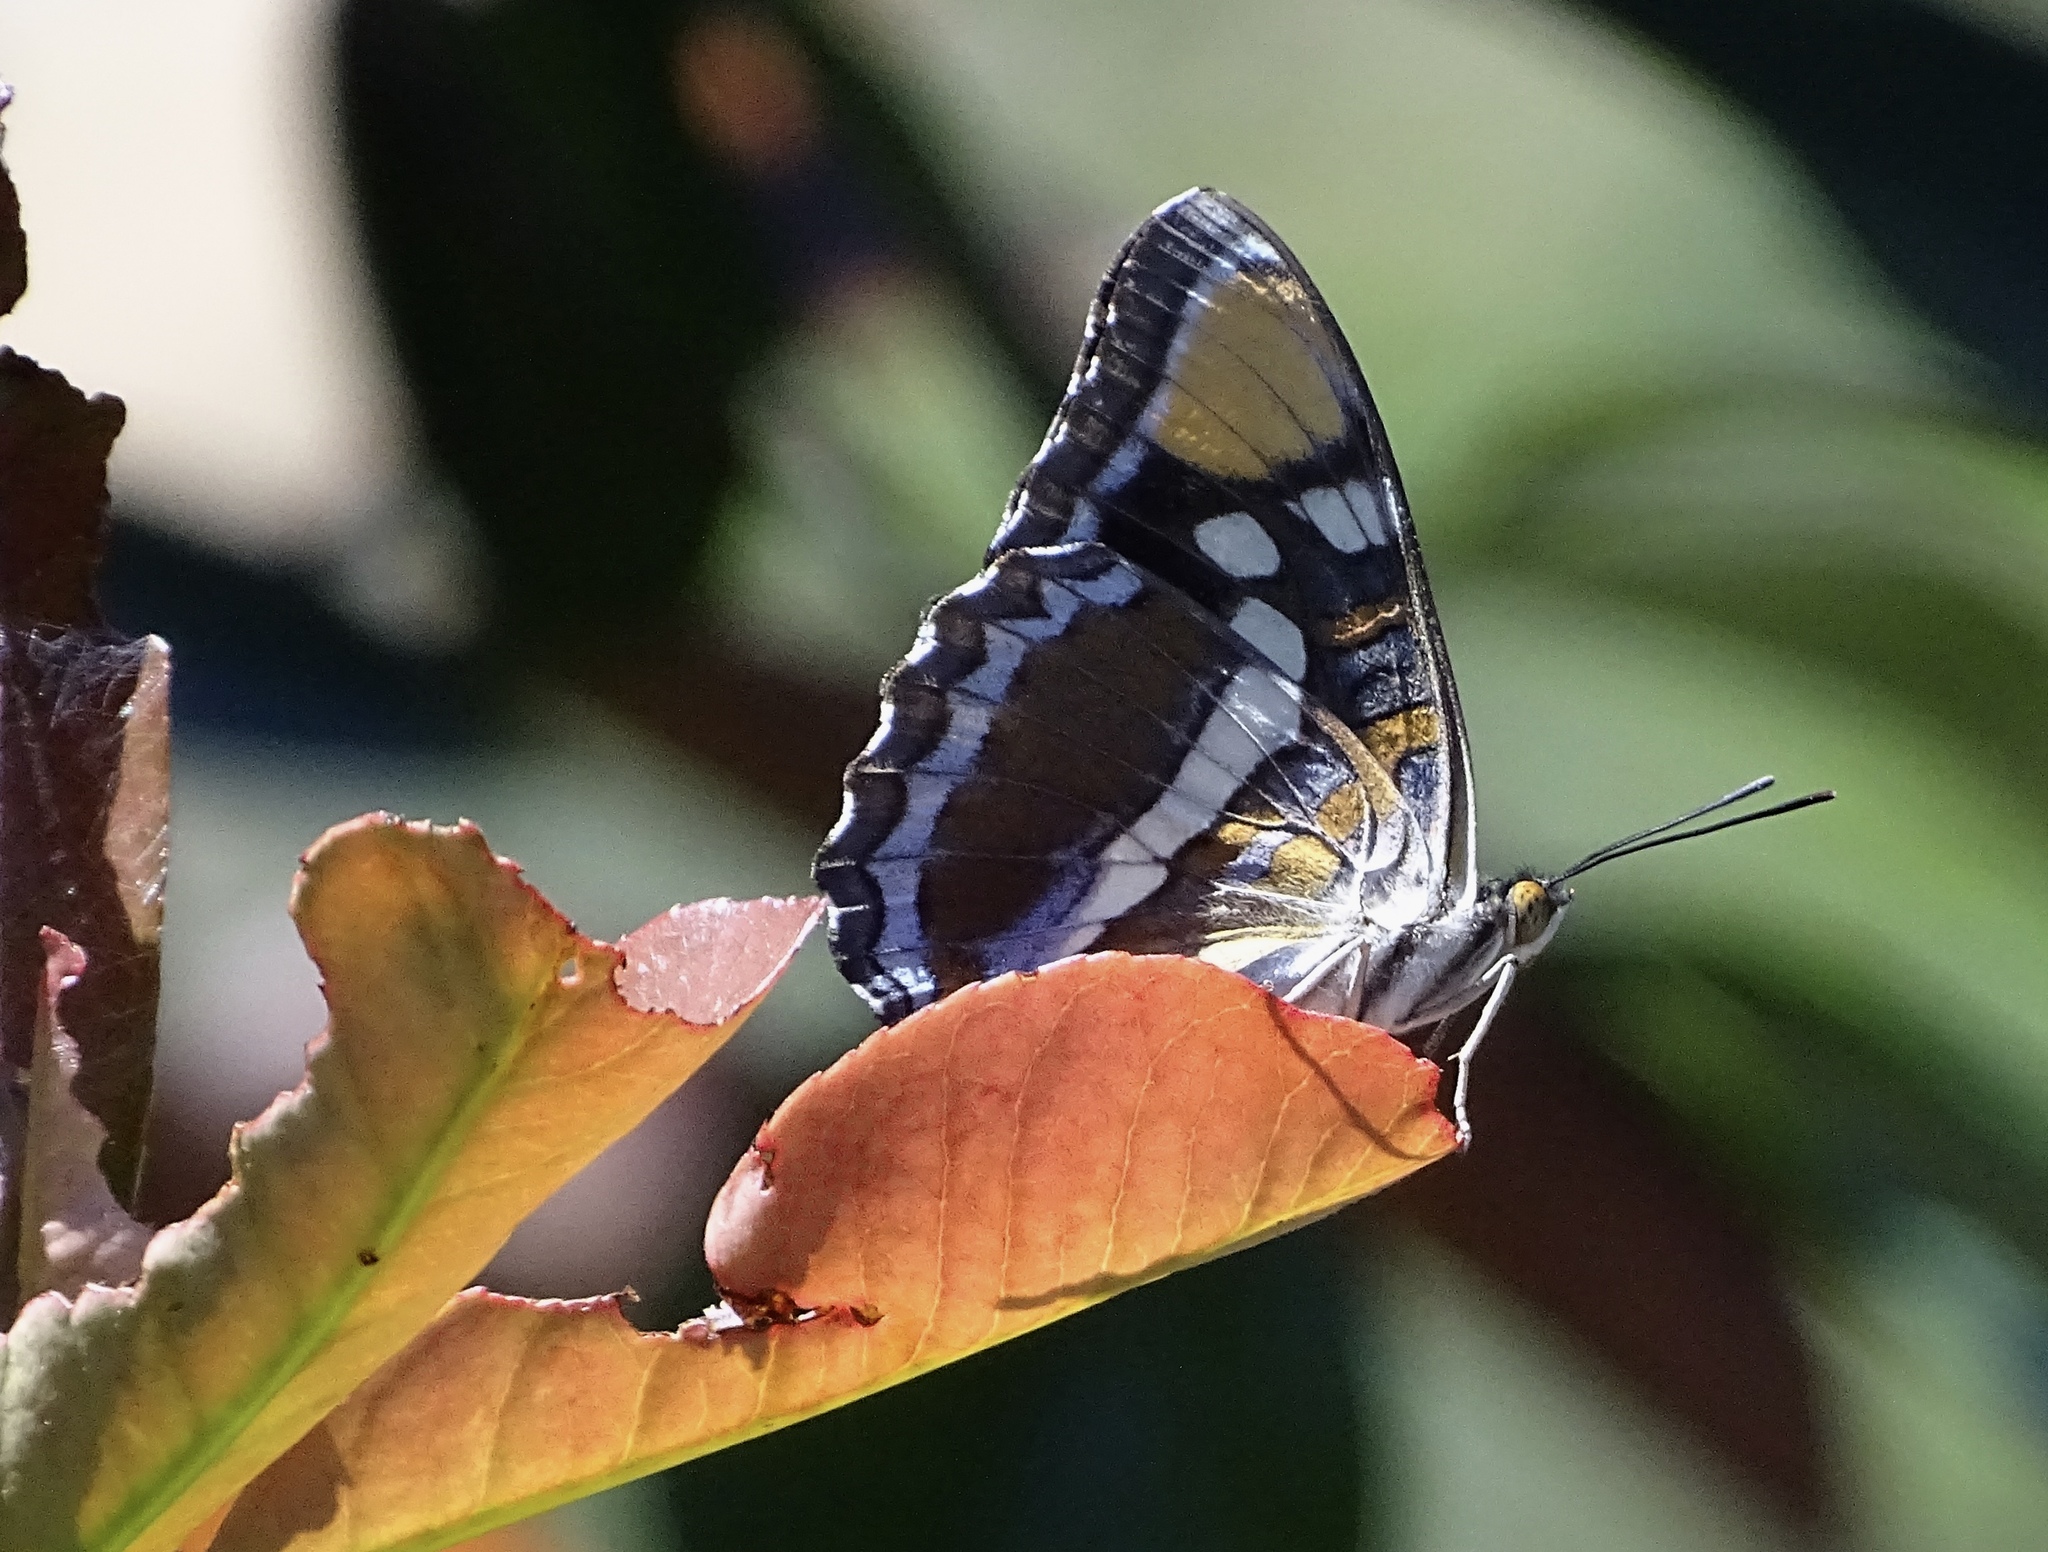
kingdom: Animalia
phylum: Arthropoda
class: Insecta
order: Lepidoptera
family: Nymphalidae
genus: Limenitis
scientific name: Limenitis bredowii
